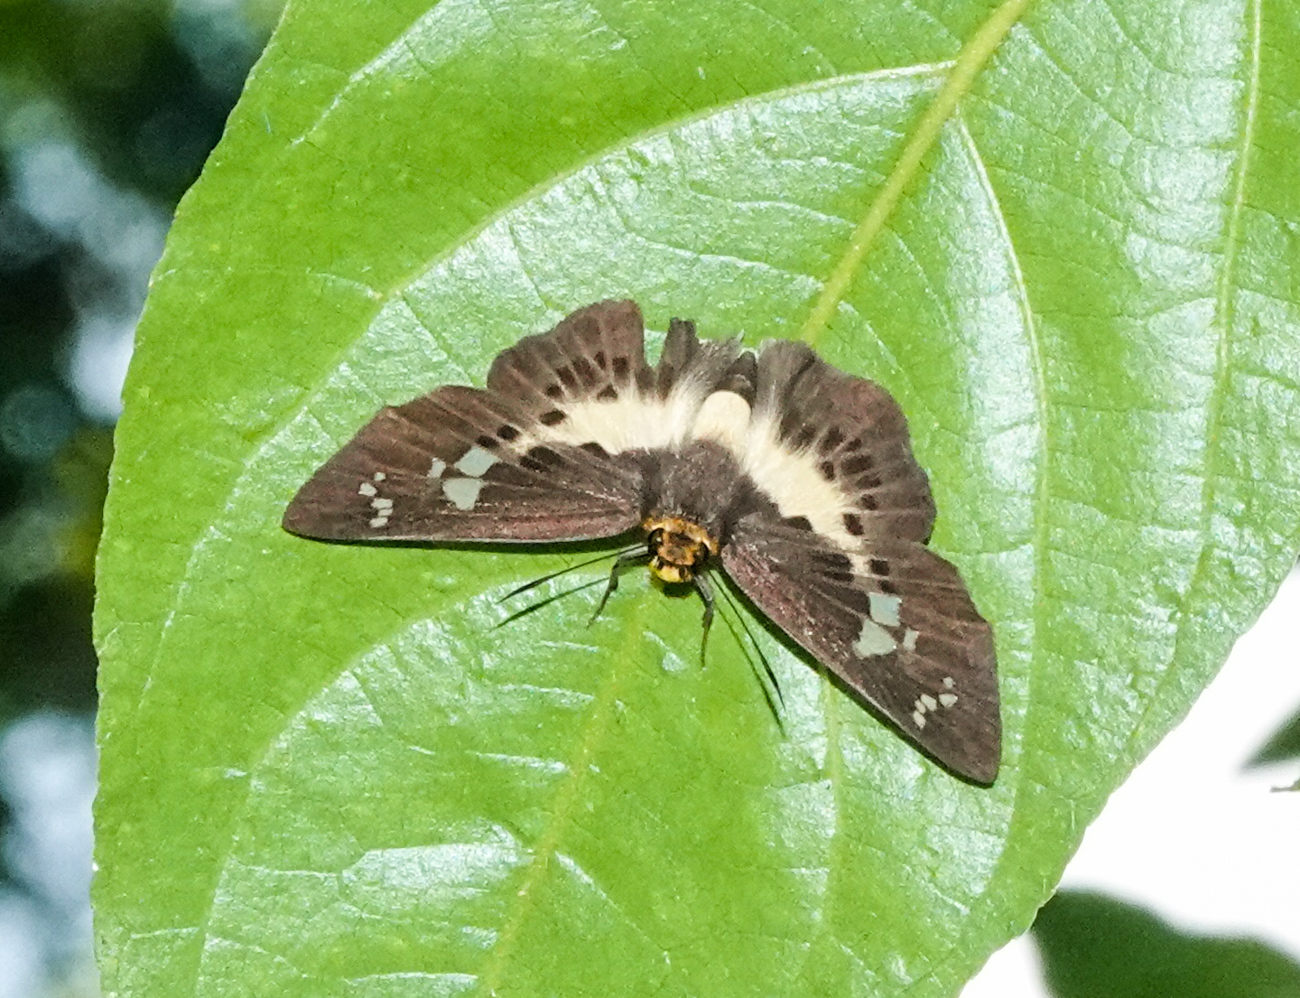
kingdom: Animalia
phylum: Arthropoda
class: Insecta
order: Lepidoptera
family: Hesperiidae
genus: Daimio
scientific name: Daimio
